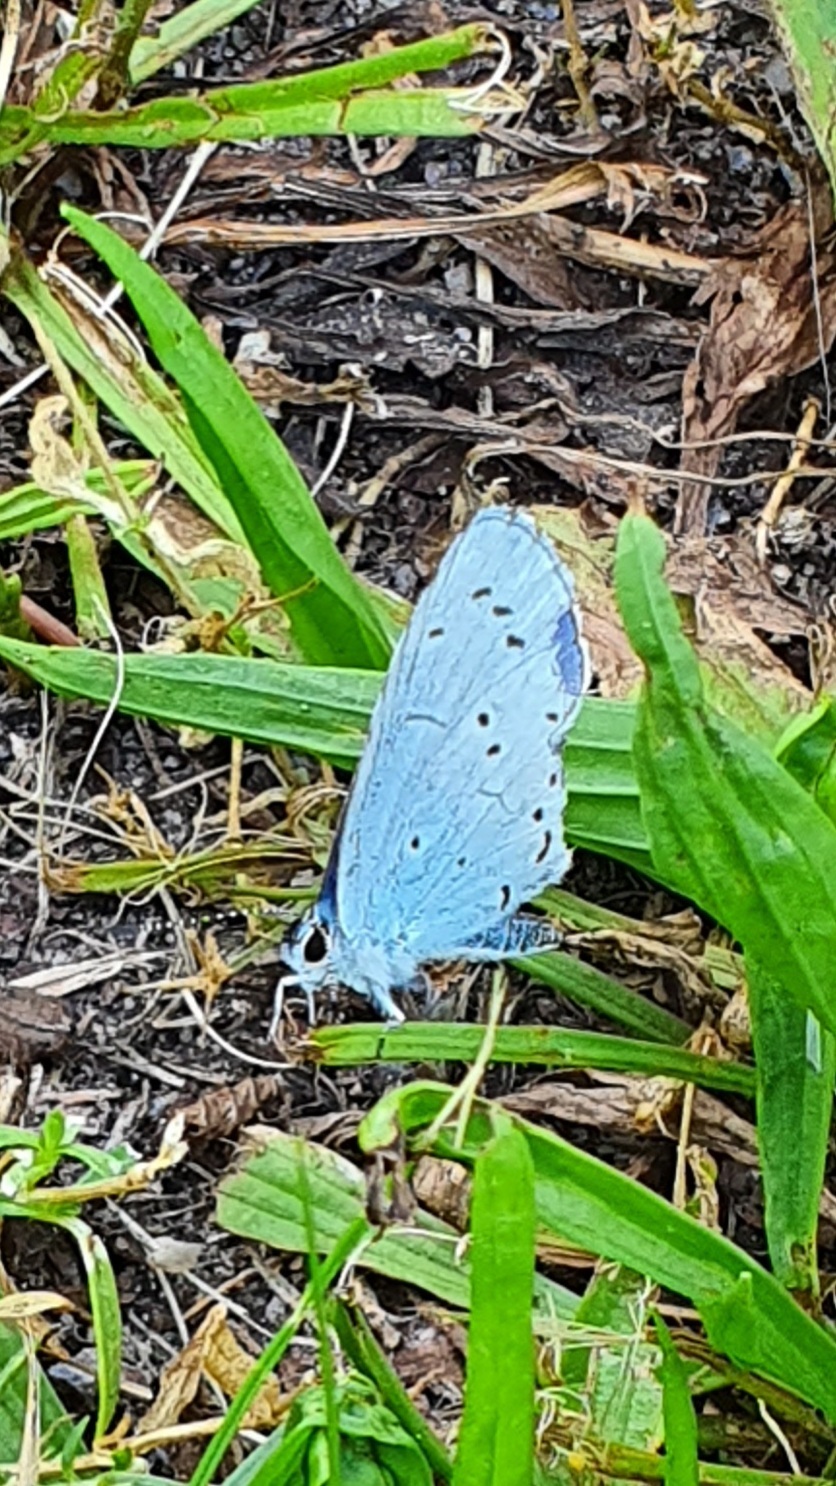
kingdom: Animalia
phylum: Arthropoda
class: Insecta
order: Lepidoptera
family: Lycaenidae
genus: Celastrina
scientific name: Celastrina argiolus
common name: Holly blue
